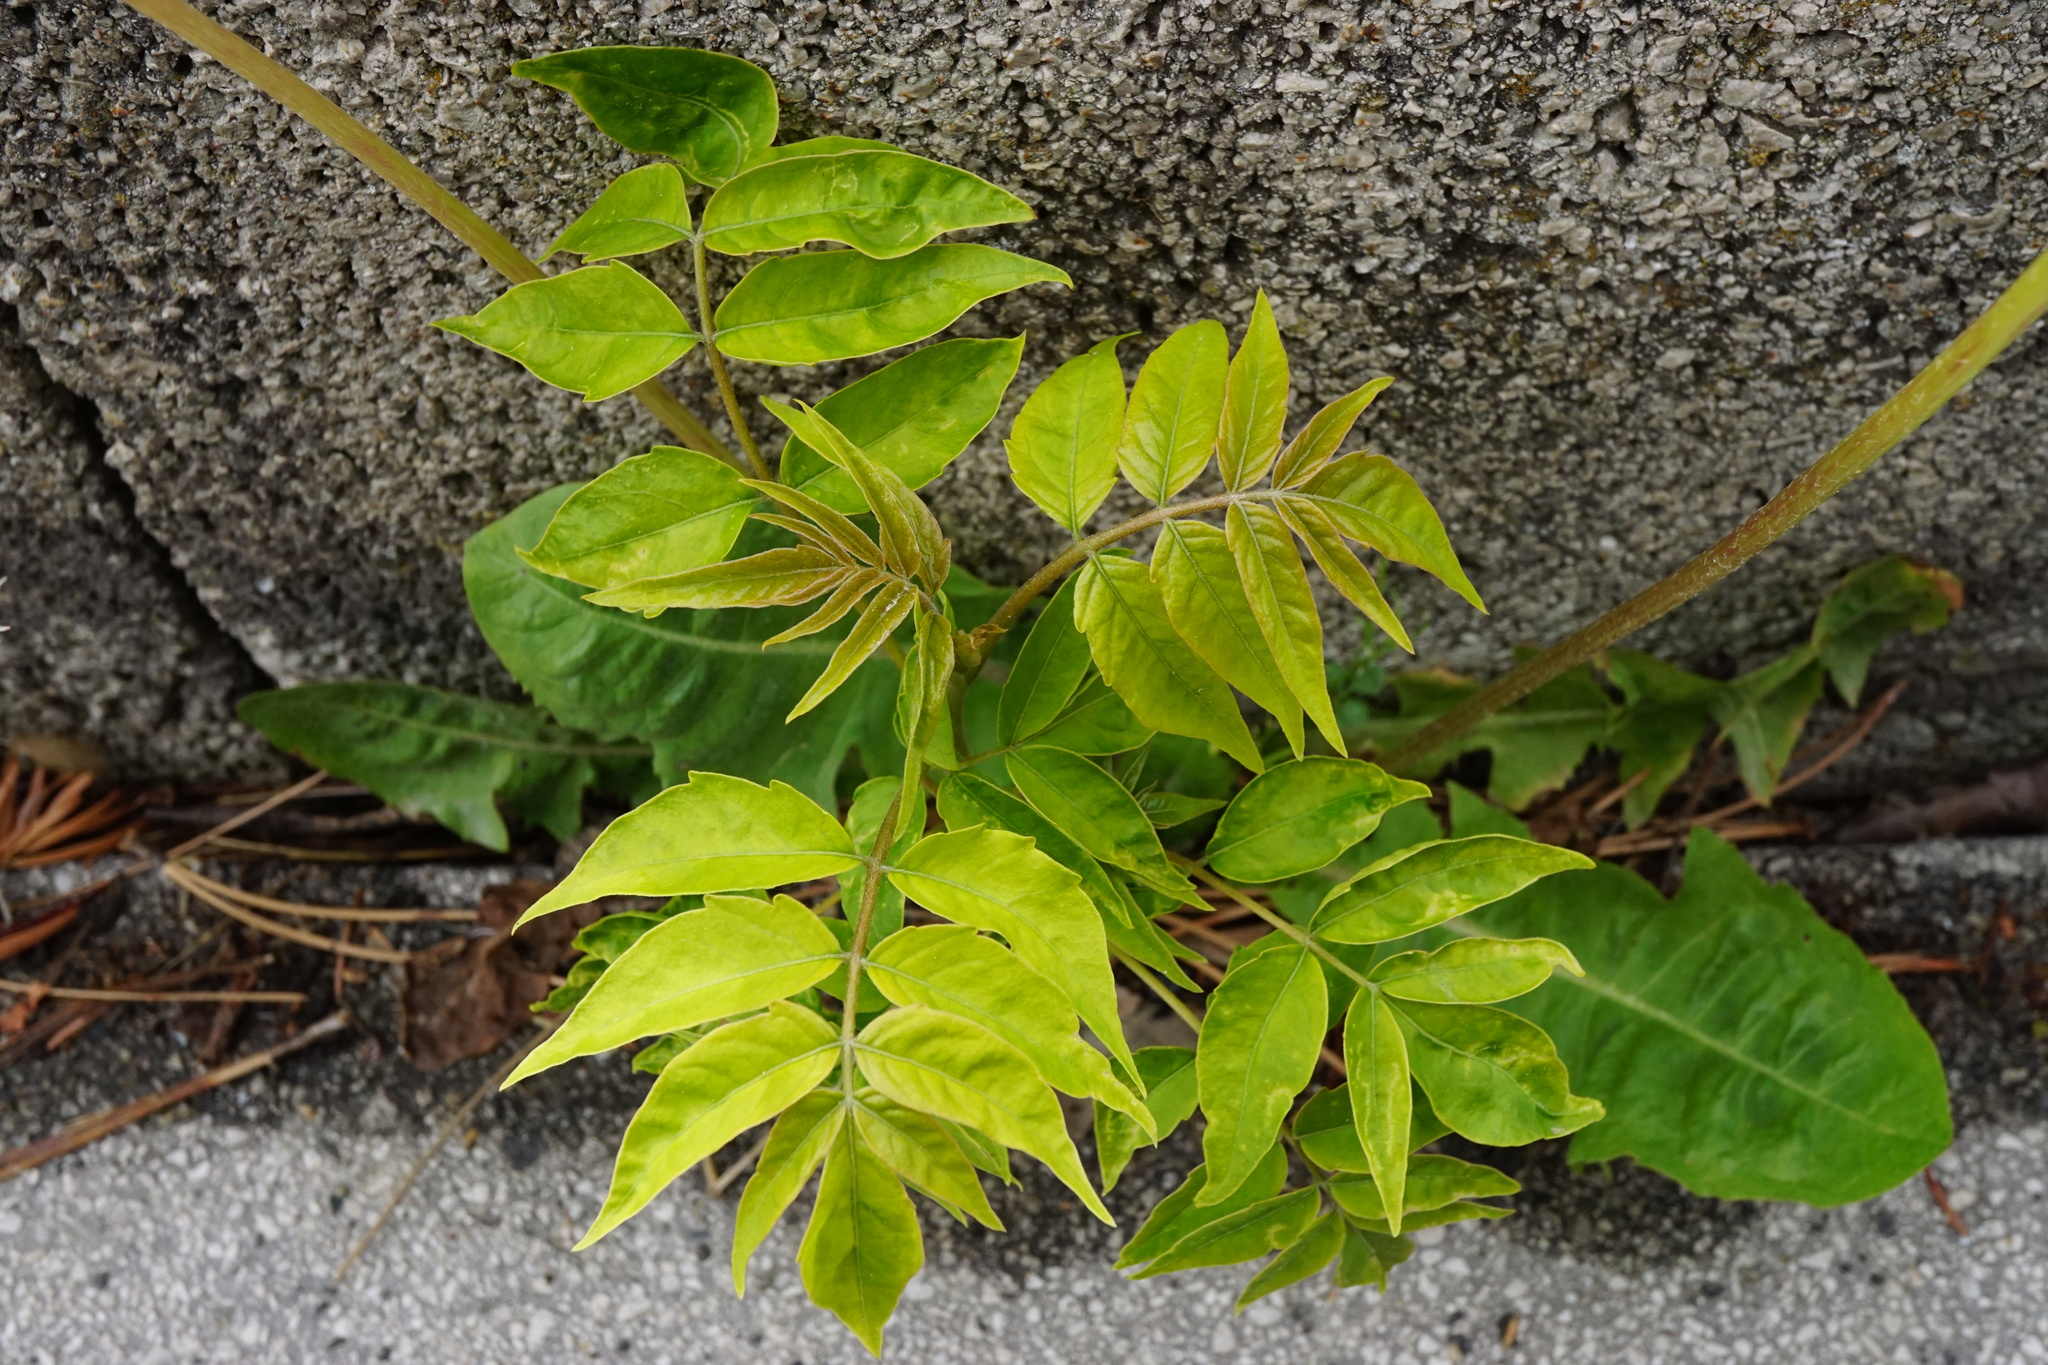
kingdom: Plantae
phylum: Tracheophyta
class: Magnoliopsida
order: Sapindales
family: Simaroubaceae
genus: Ailanthus
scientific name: Ailanthus altissima
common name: Tree-of-heaven
